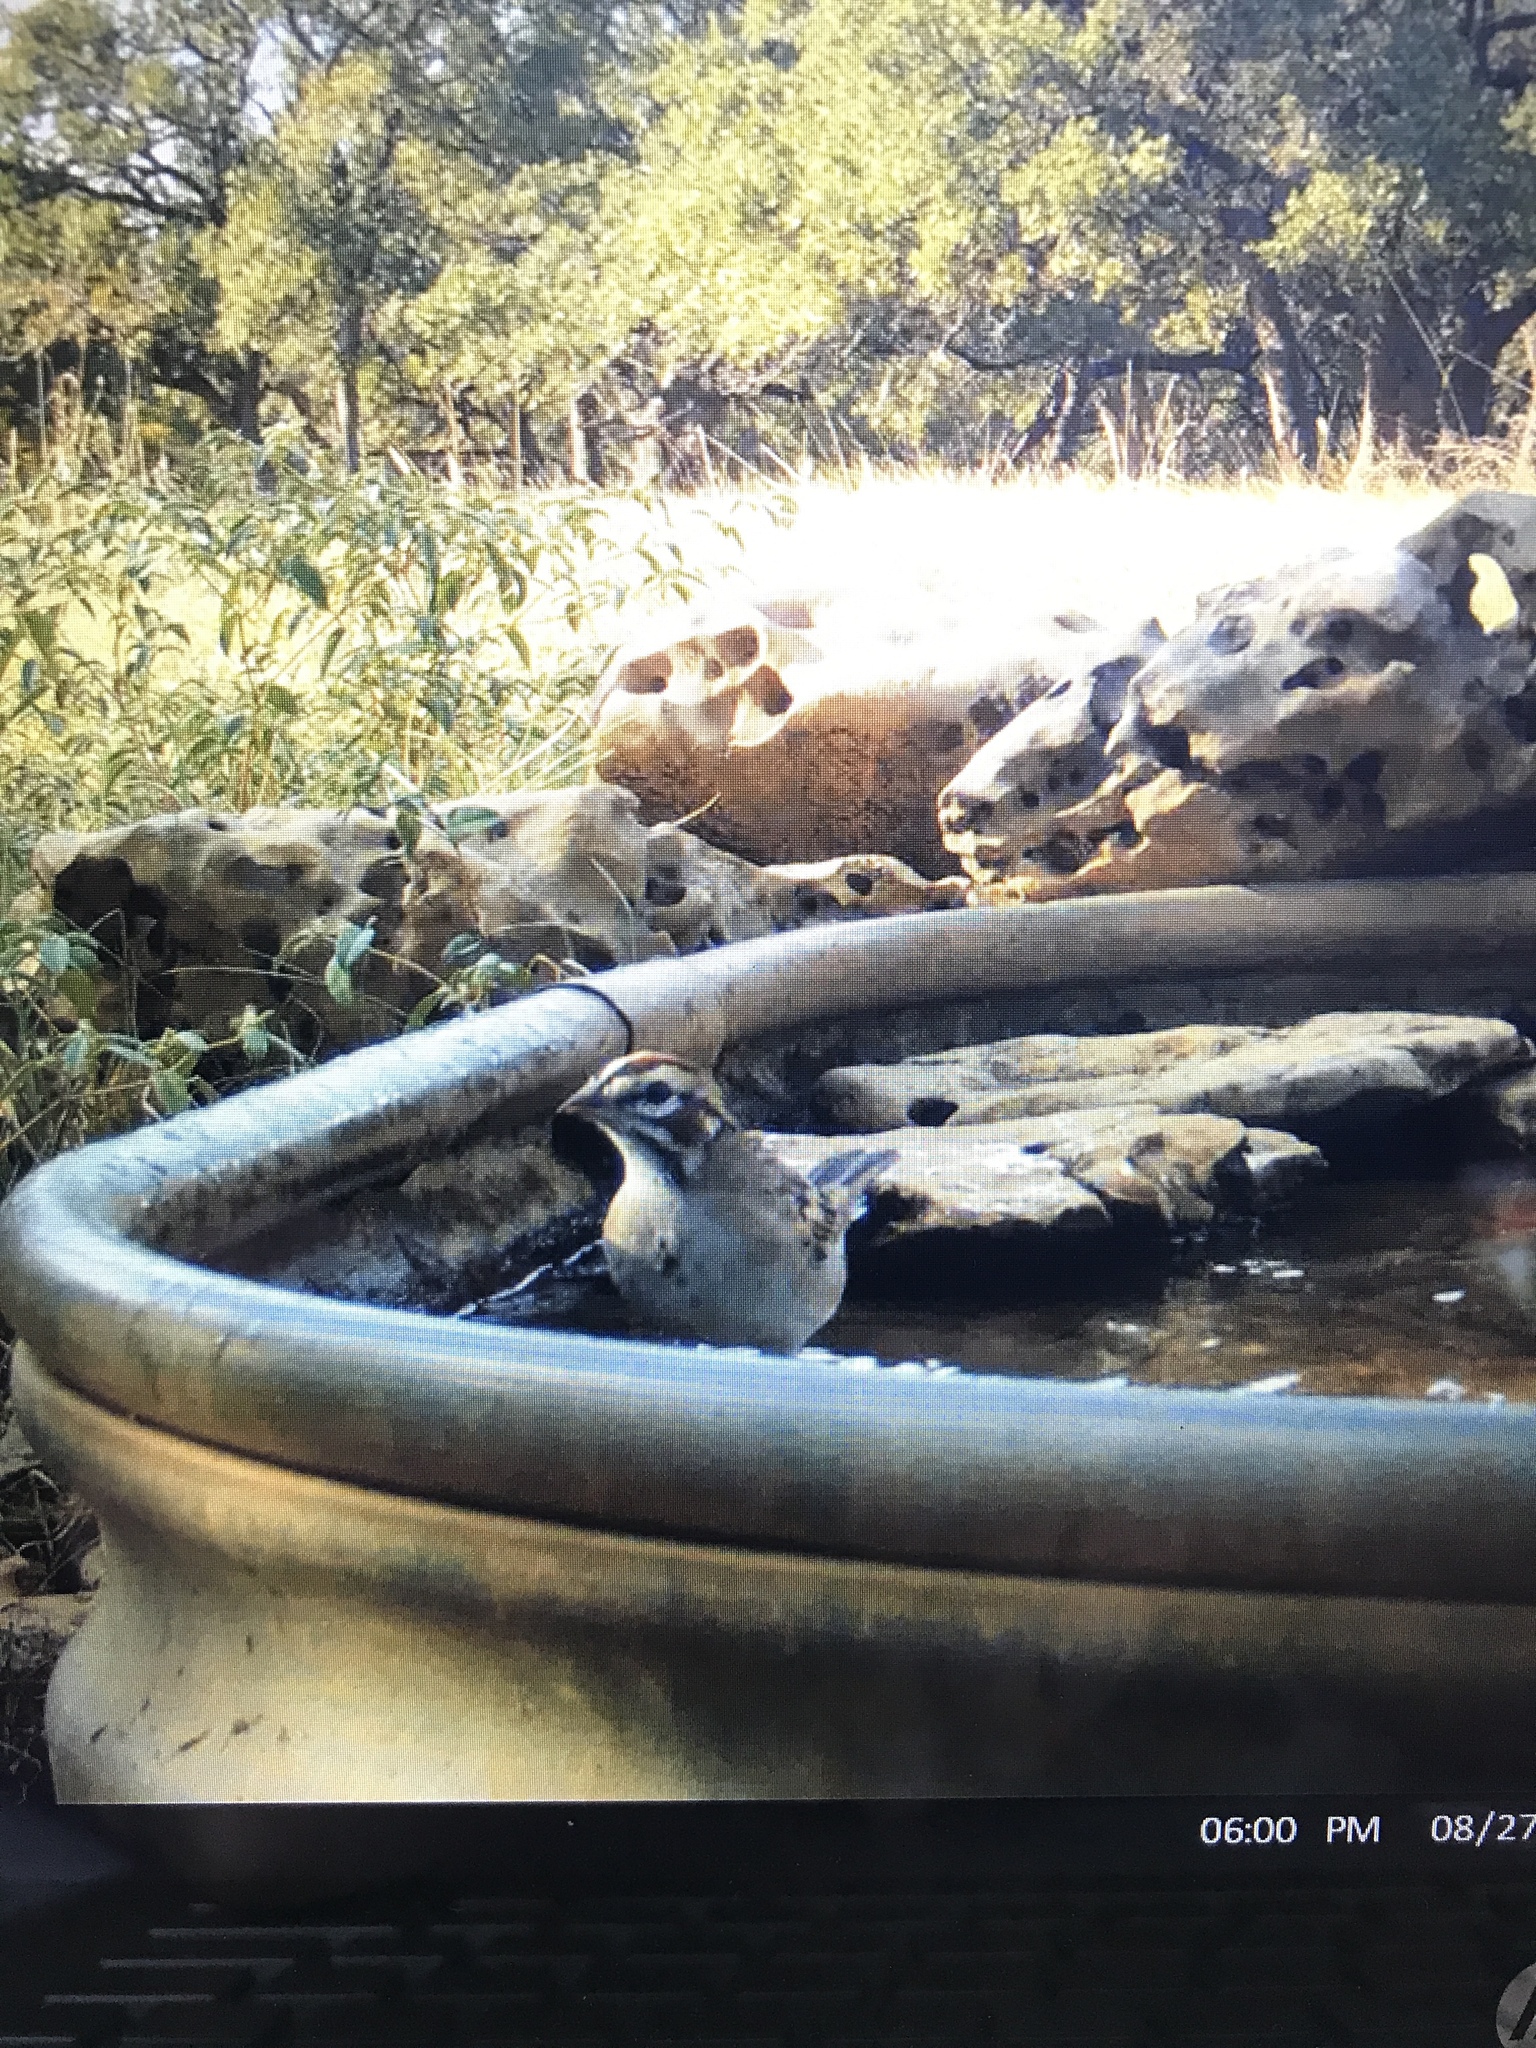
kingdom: Animalia
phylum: Chordata
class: Aves
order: Passeriformes
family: Passerellidae
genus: Chondestes
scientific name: Chondestes grammacus
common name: Lark sparrow
